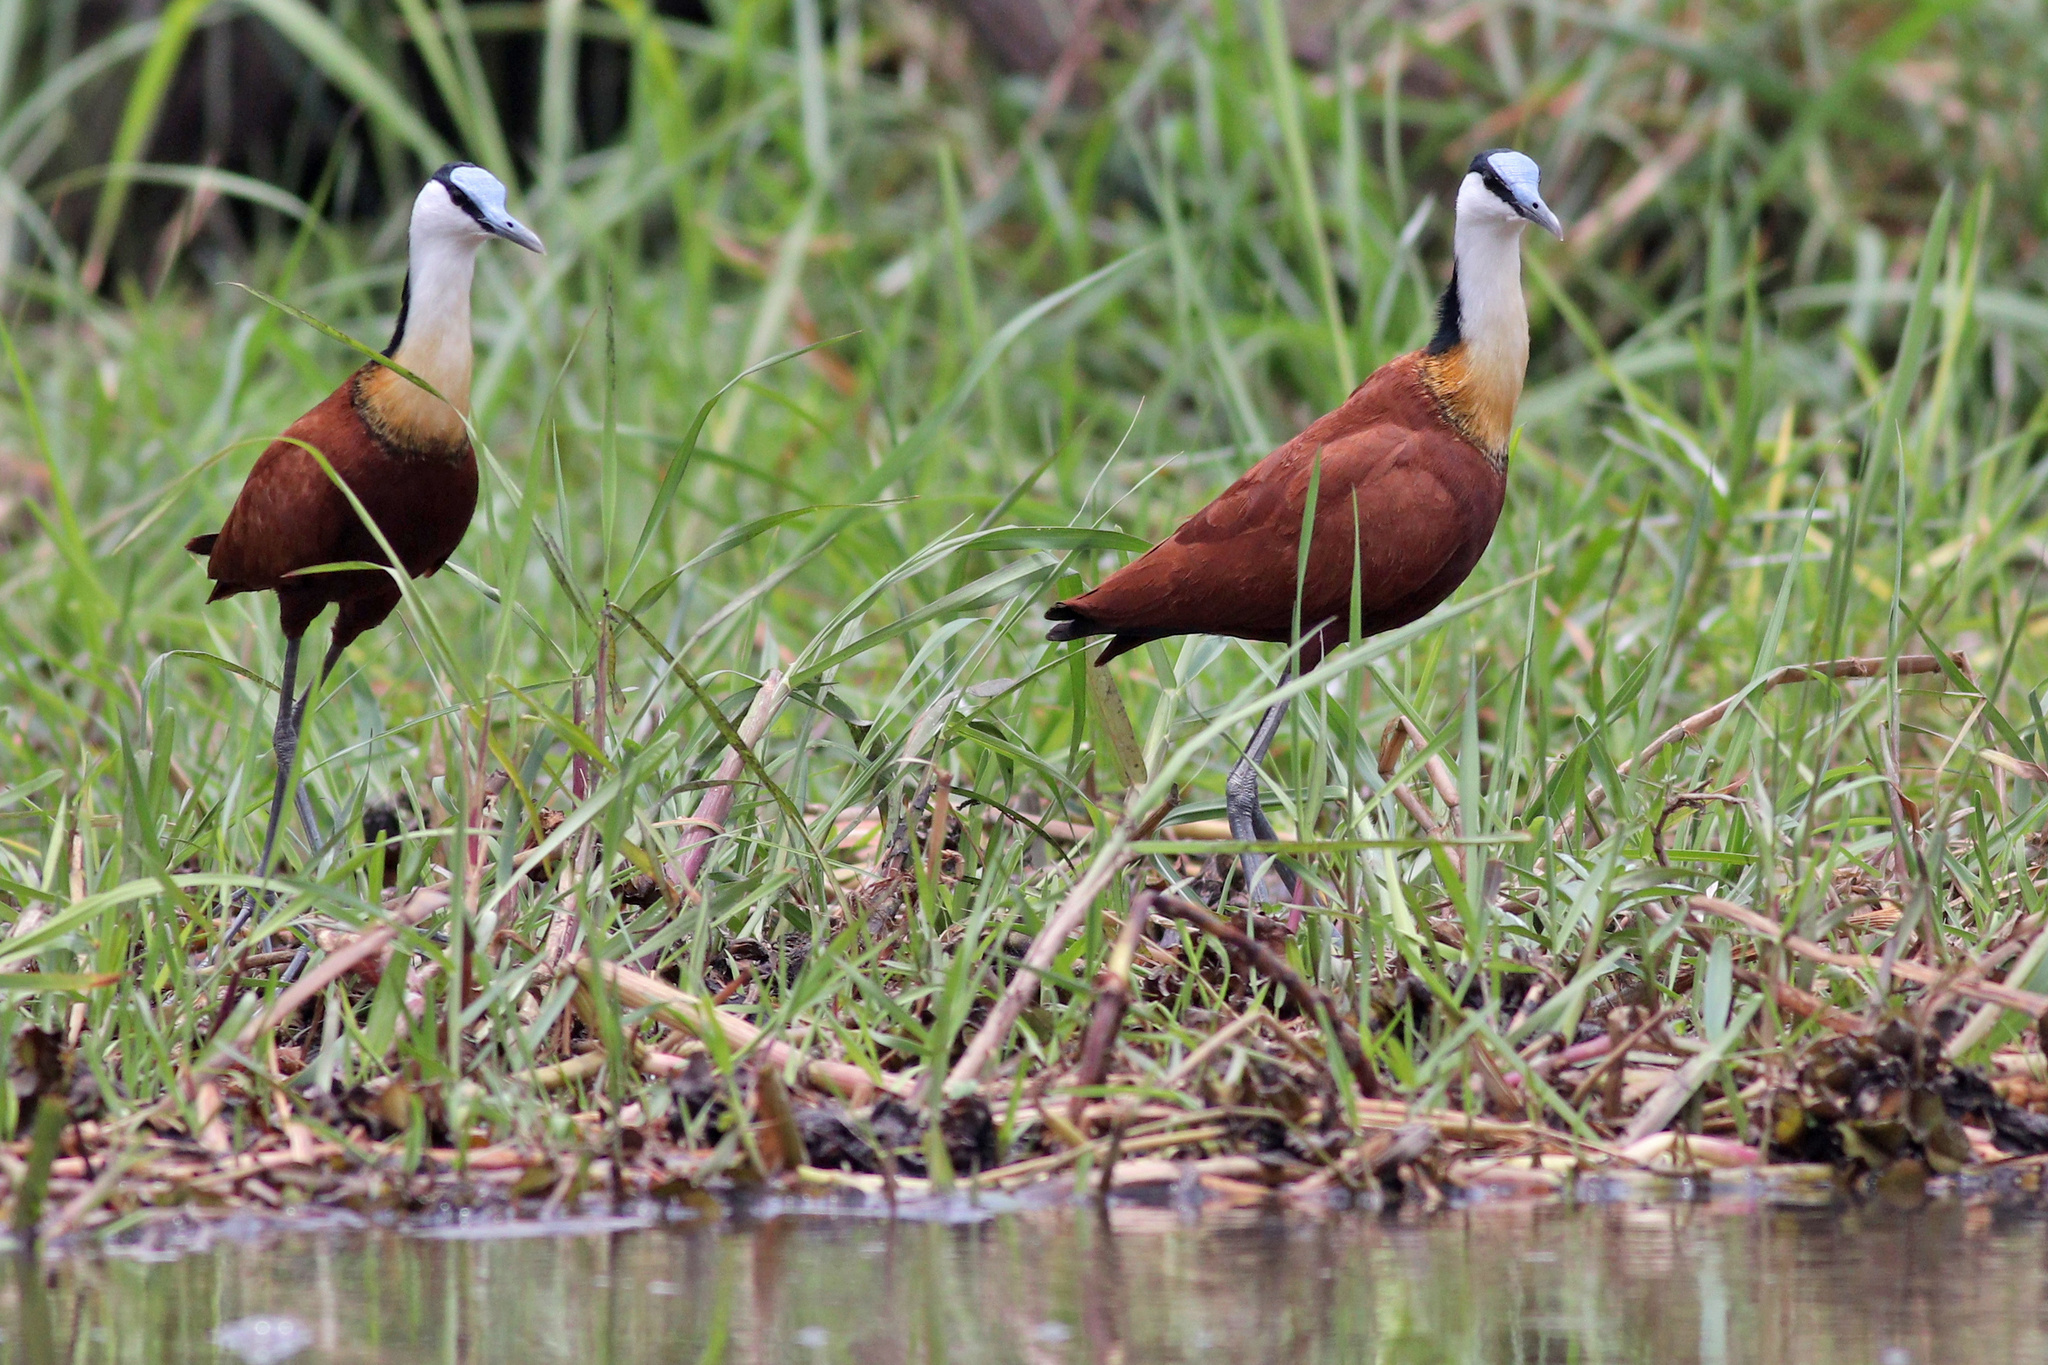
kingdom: Animalia
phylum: Chordata
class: Aves
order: Charadriiformes
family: Jacanidae
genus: Actophilornis
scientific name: Actophilornis africanus
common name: African jacana
